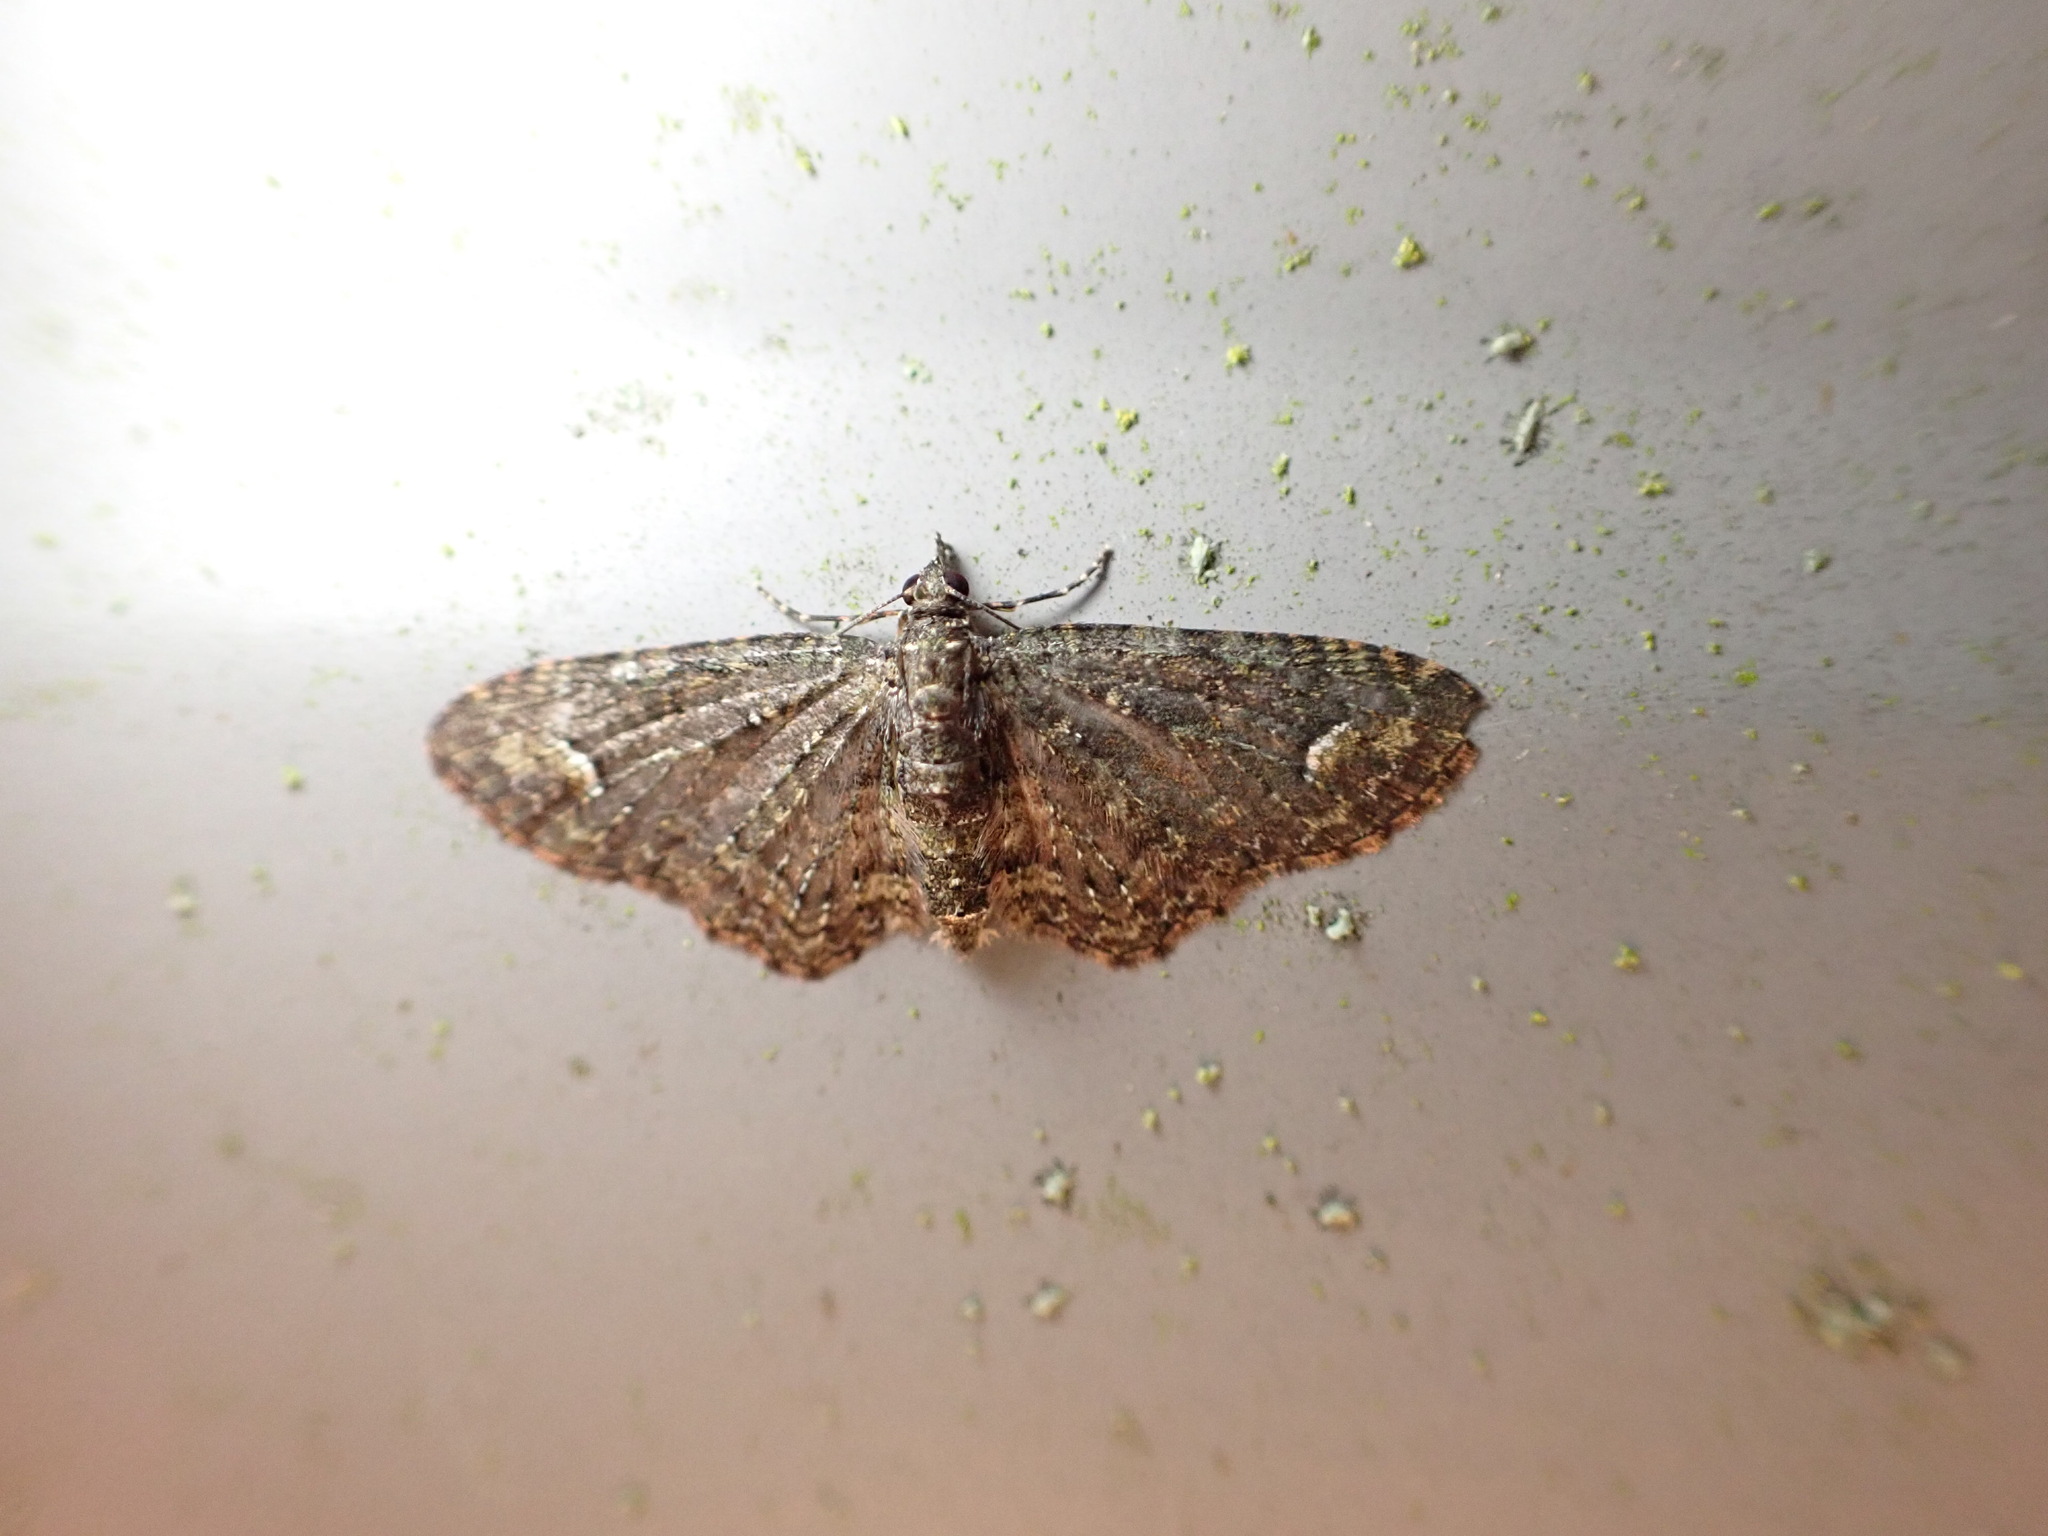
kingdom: Animalia
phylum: Arthropoda
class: Insecta
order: Lepidoptera
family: Geometridae
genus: Pasiphilodes
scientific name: Pasiphilodes testulata
